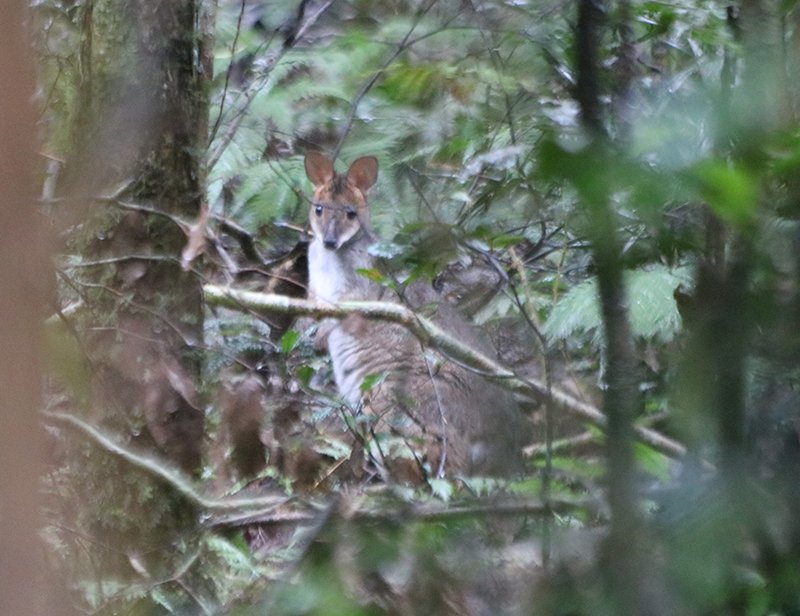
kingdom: Animalia
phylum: Chordata
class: Mammalia
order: Diprotodontia
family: Macropodidae
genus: Thylogale
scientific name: Thylogale stigmatica
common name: Red-legged pademelon
